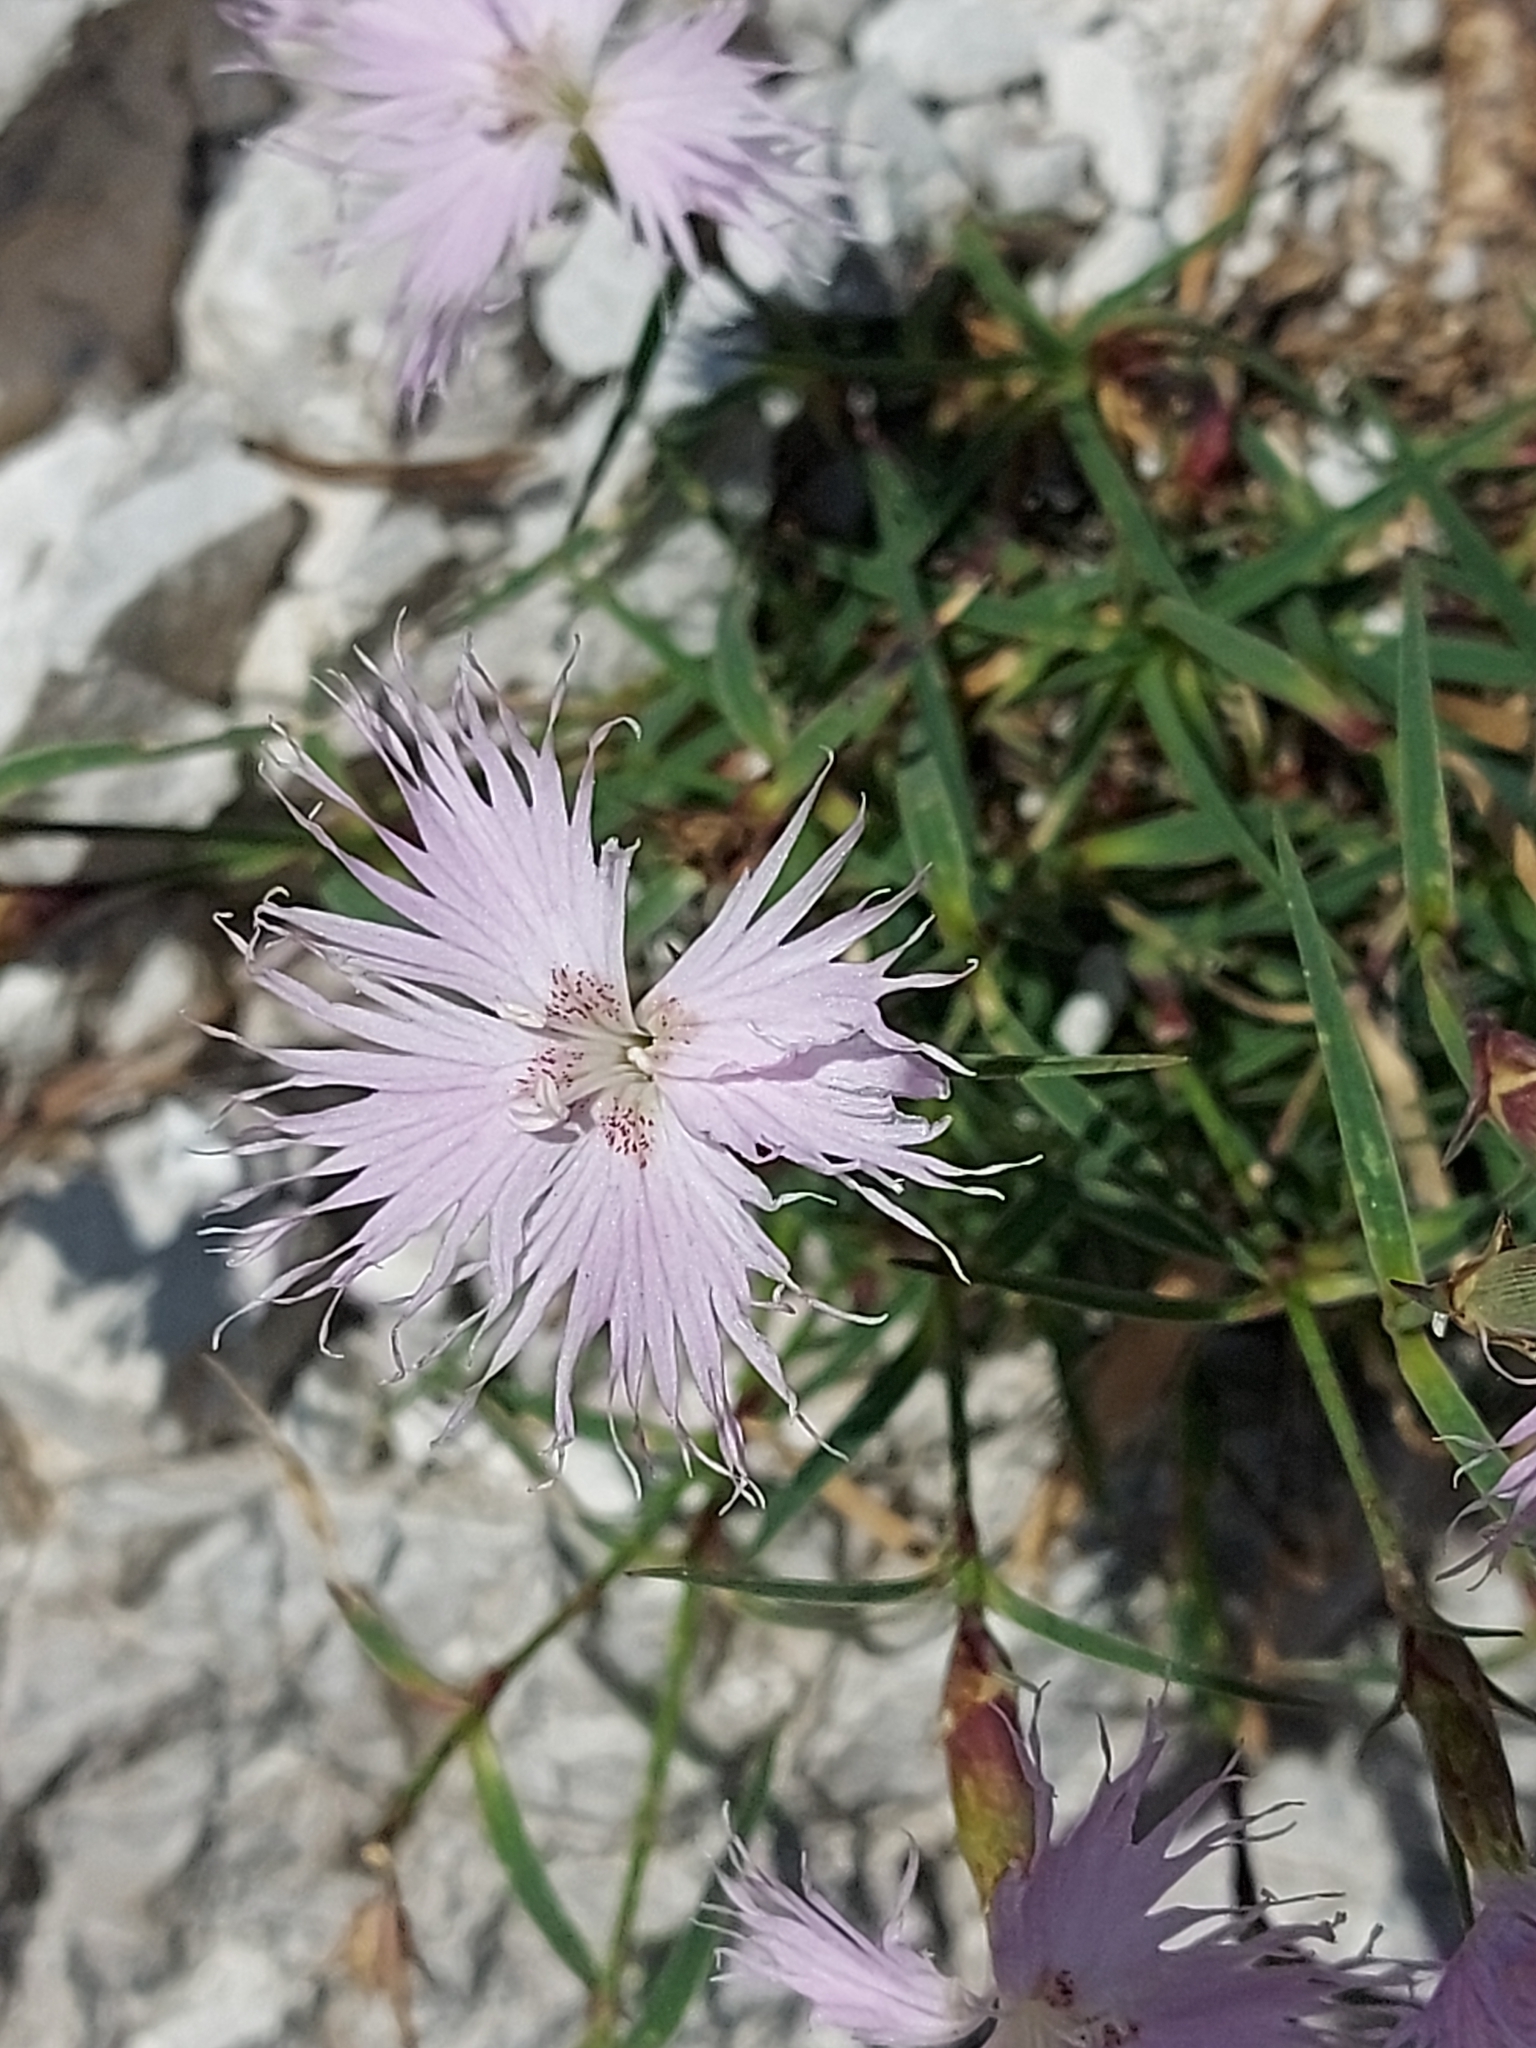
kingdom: Plantae
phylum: Tracheophyta
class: Magnoliopsida
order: Caryophyllales
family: Caryophyllaceae
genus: Dianthus
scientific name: Dianthus sternbergii
